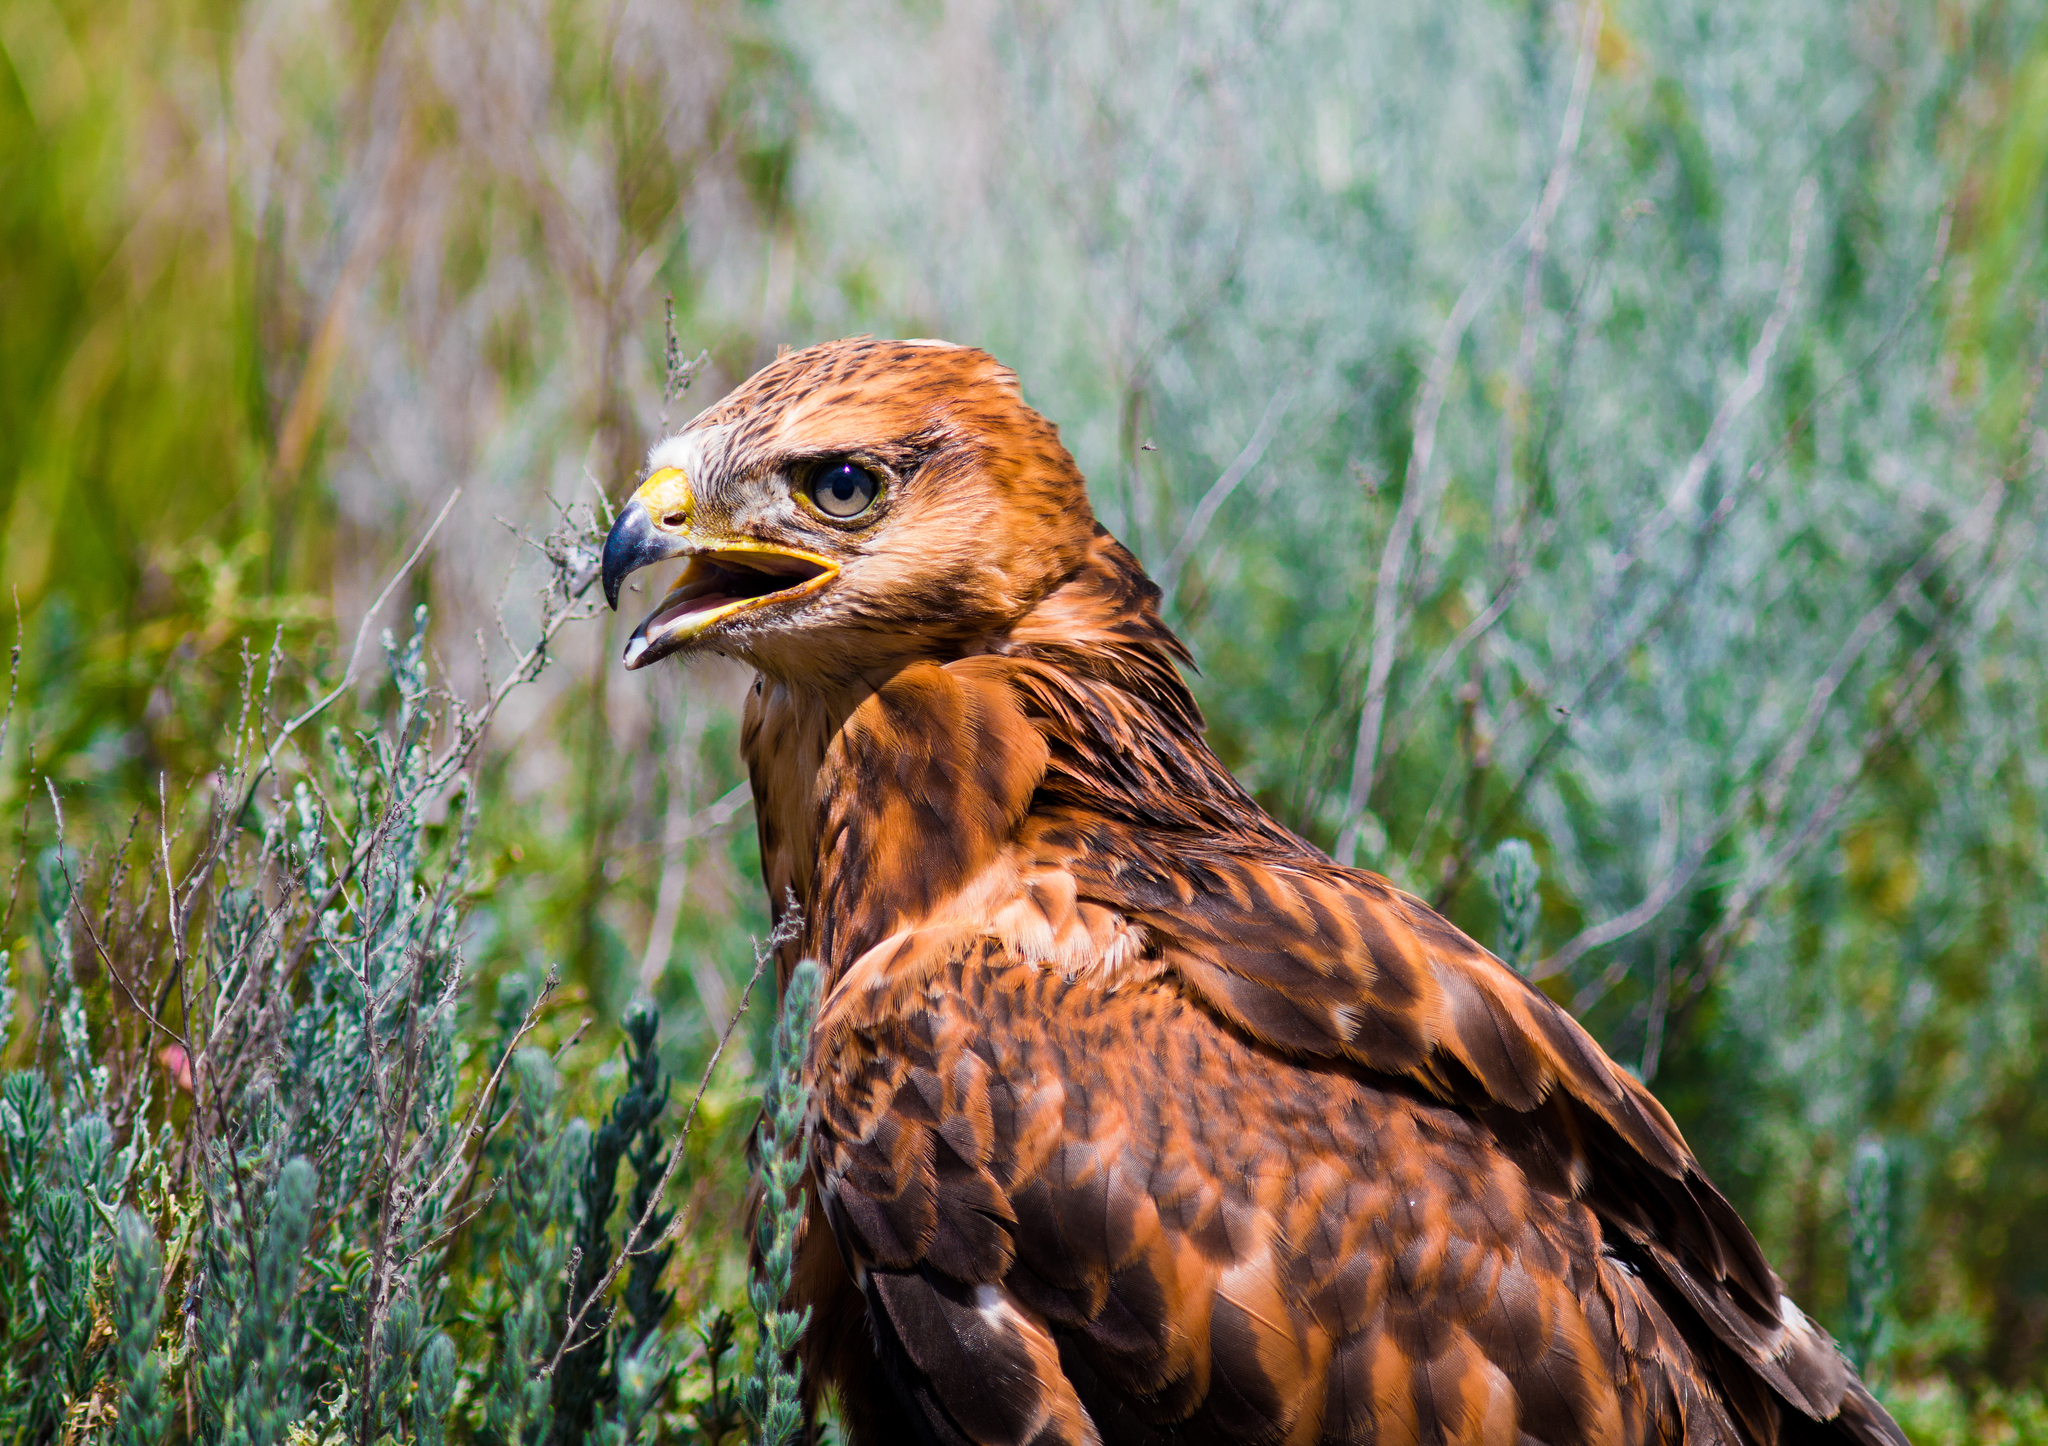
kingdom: Animalia
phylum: Chordata
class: Aves
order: Accipitriformes
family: Accipitridae
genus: Buteo
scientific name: Buteo rufinus
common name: Long-legged buzzard
